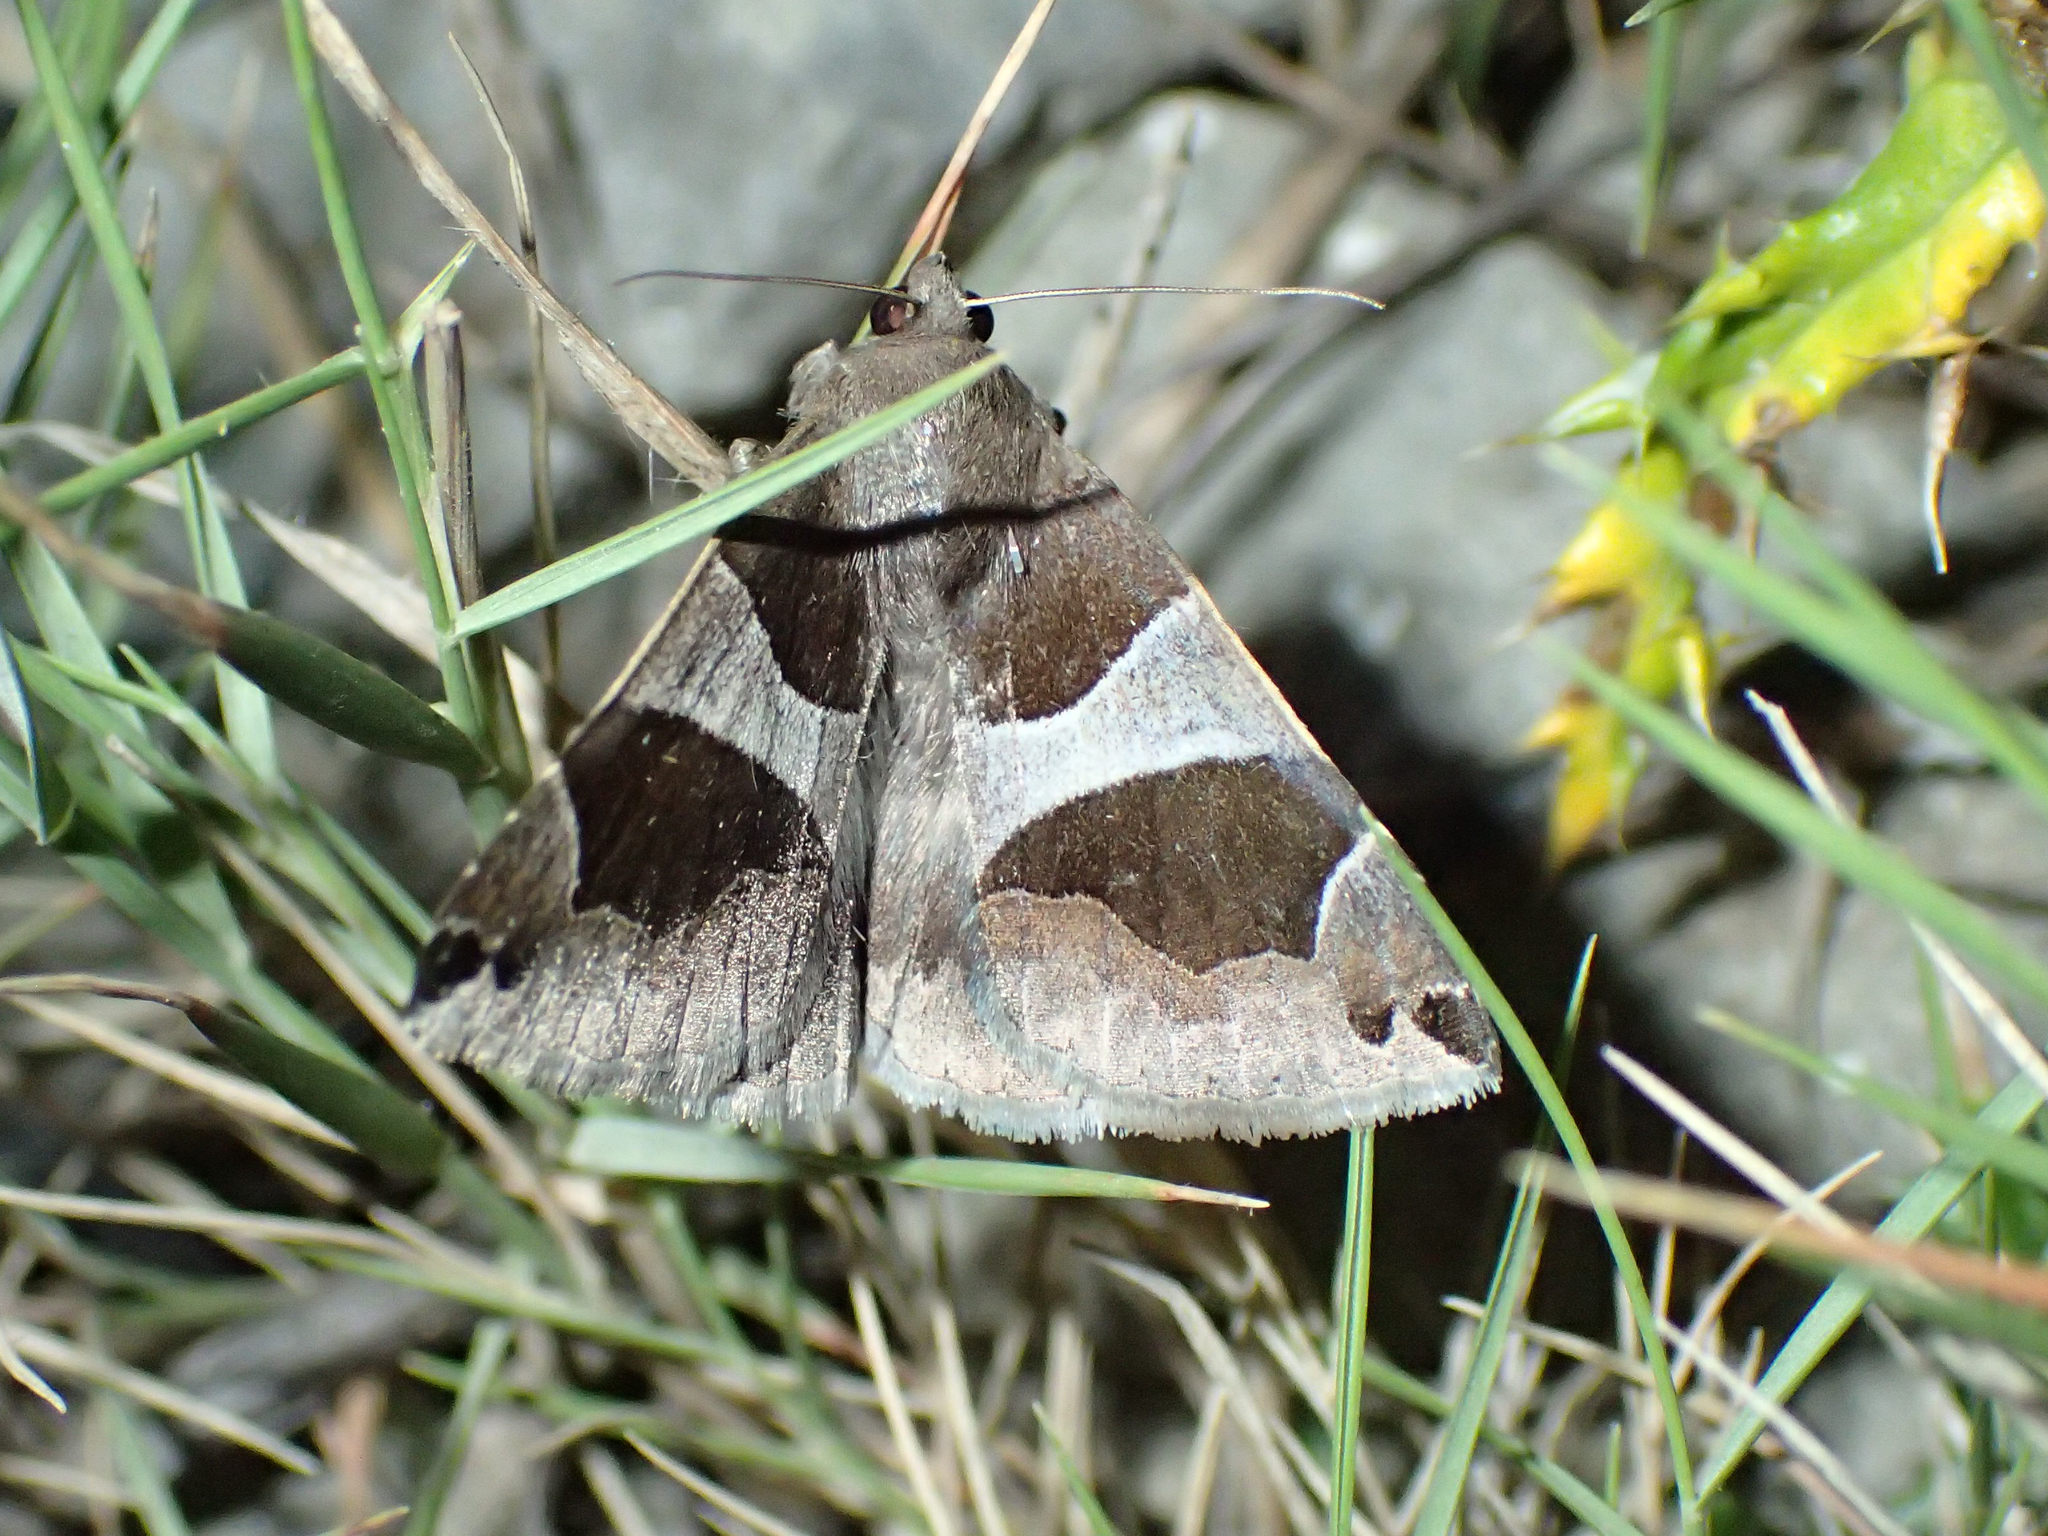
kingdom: Animalia
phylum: Arthropoda
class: Insecta
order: Lepidoptera
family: Erebidae
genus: Dysgonia
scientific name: Dysgonia algira
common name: Passenger
